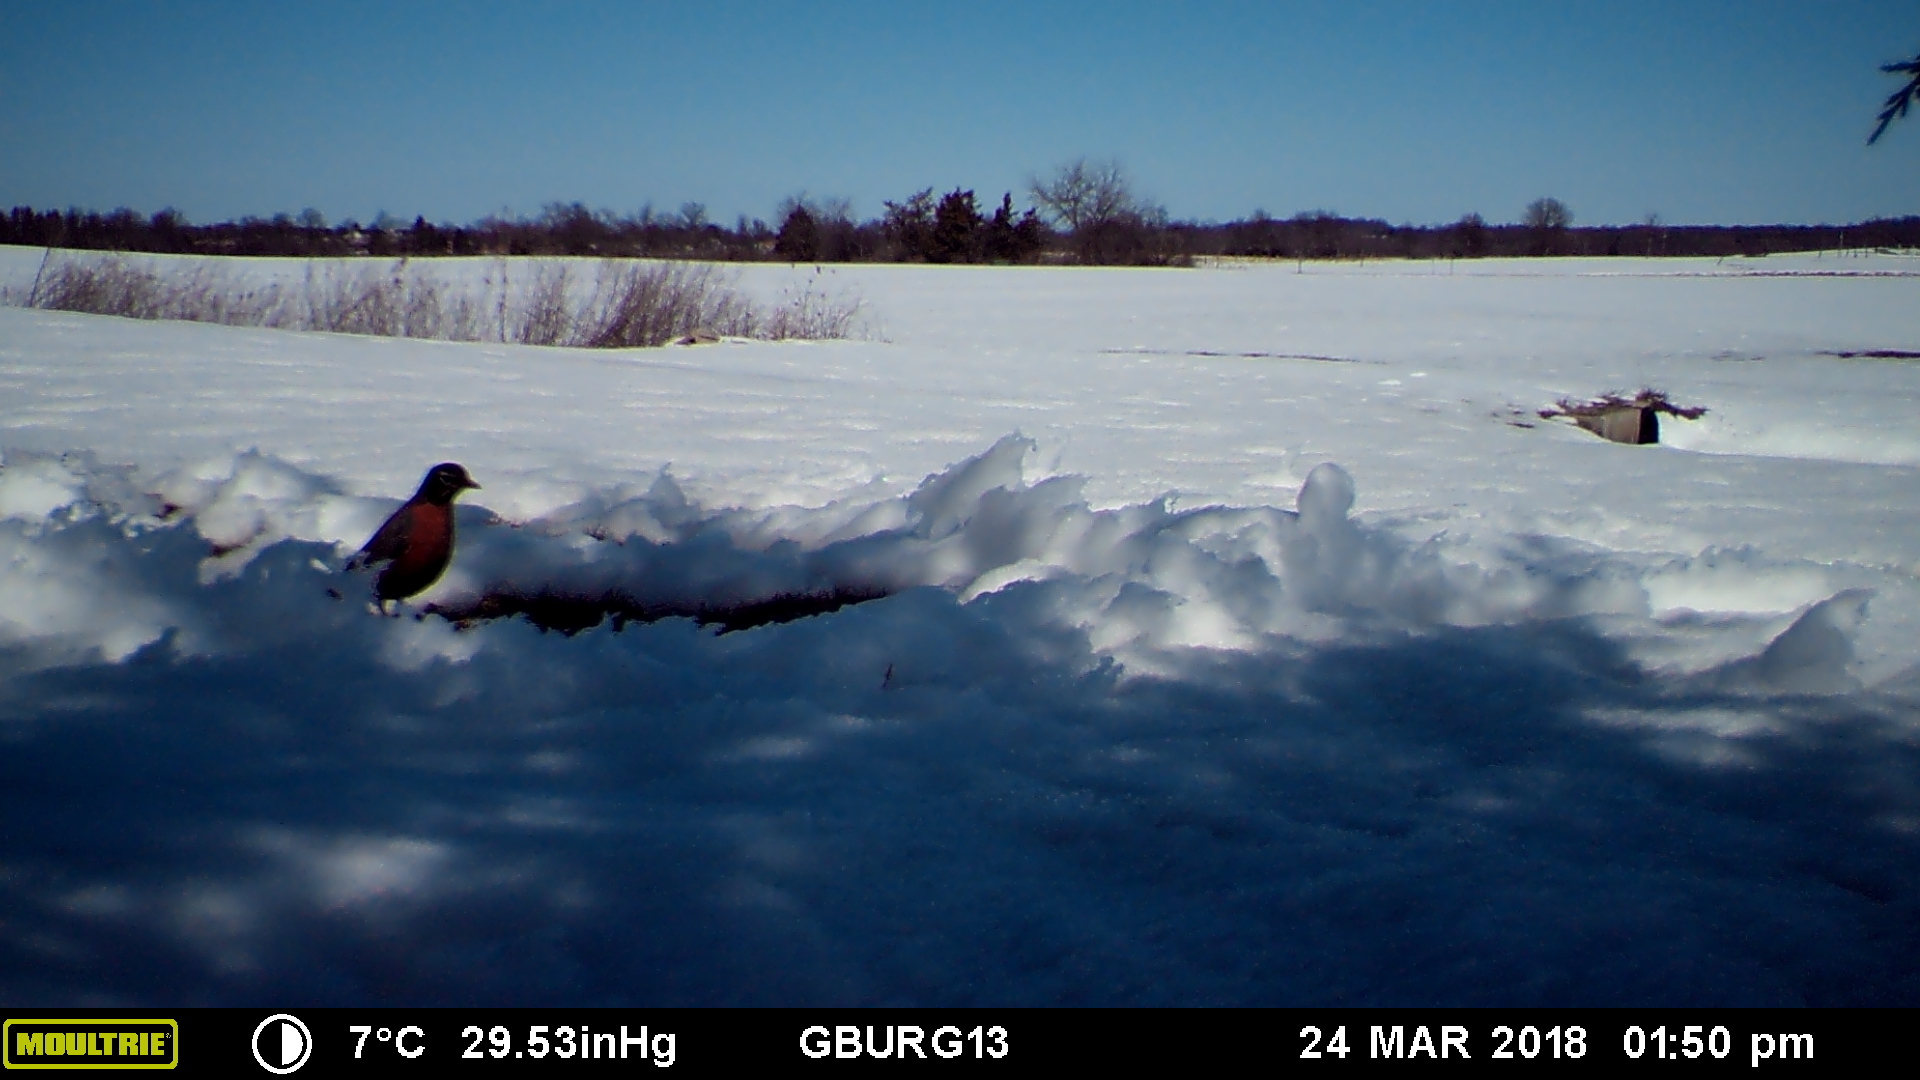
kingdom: Animalia
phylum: Chordata
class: Aves
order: Passeriformes
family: Turdidae
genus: Turdus
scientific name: Turdus migratorius
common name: American robin
